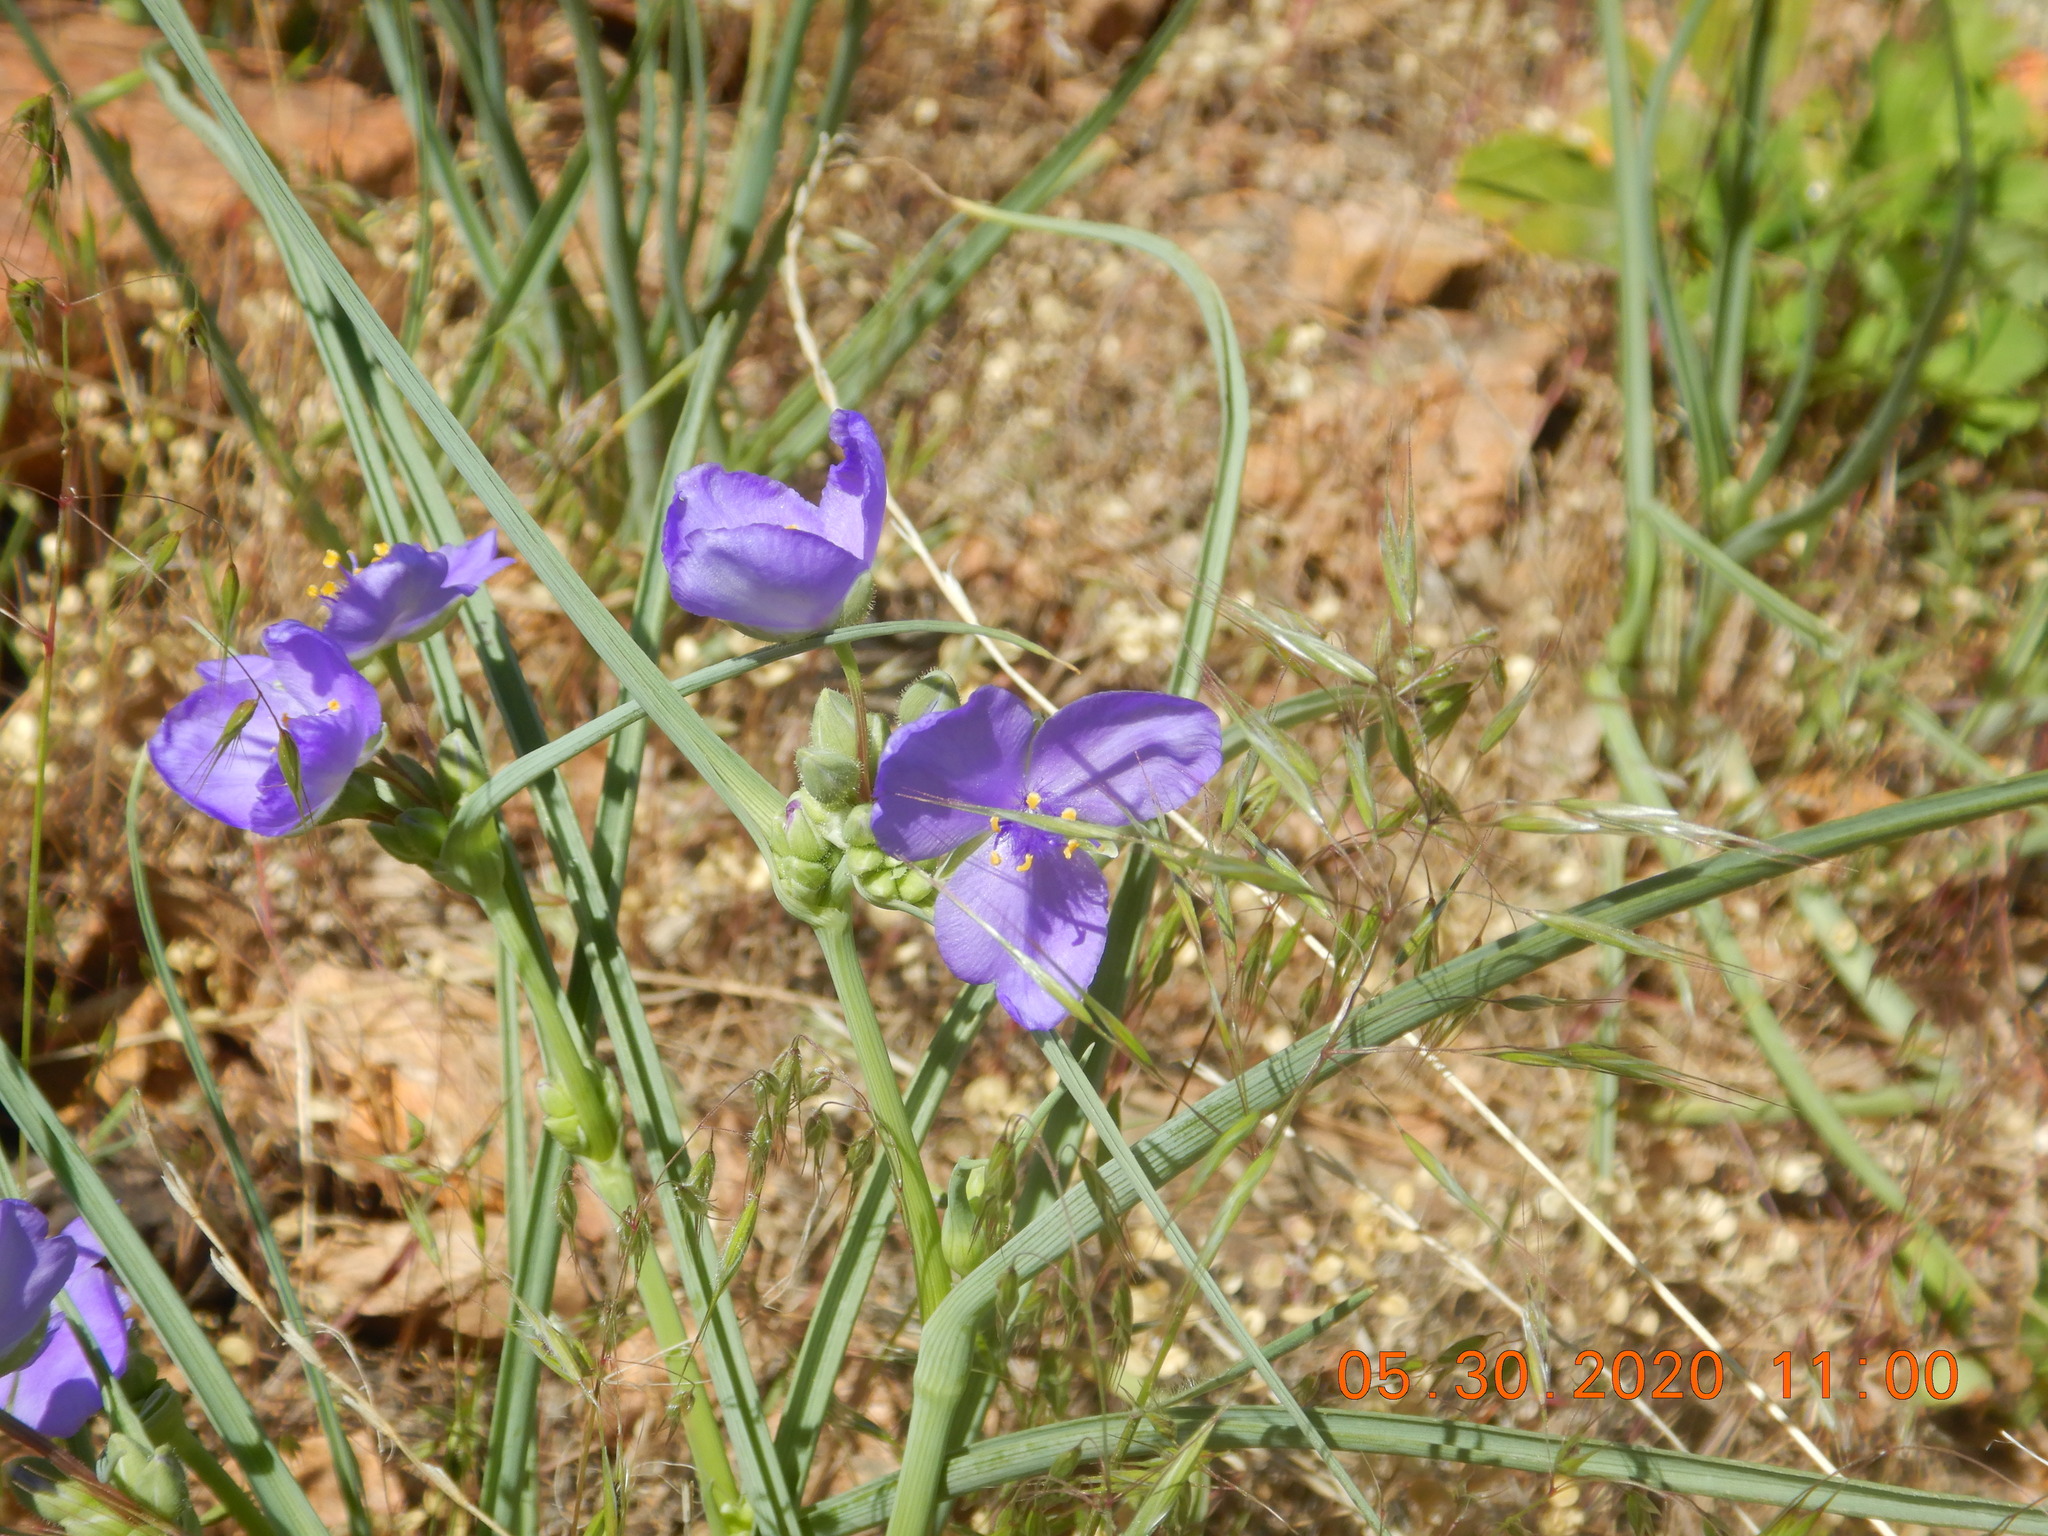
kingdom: Plantae
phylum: Tracheophyta
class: Liliopsida
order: Commelinales
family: Commelinaceae
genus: Tradescantia
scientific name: Tradescantia occidentalis
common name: Prairie spiderwort
